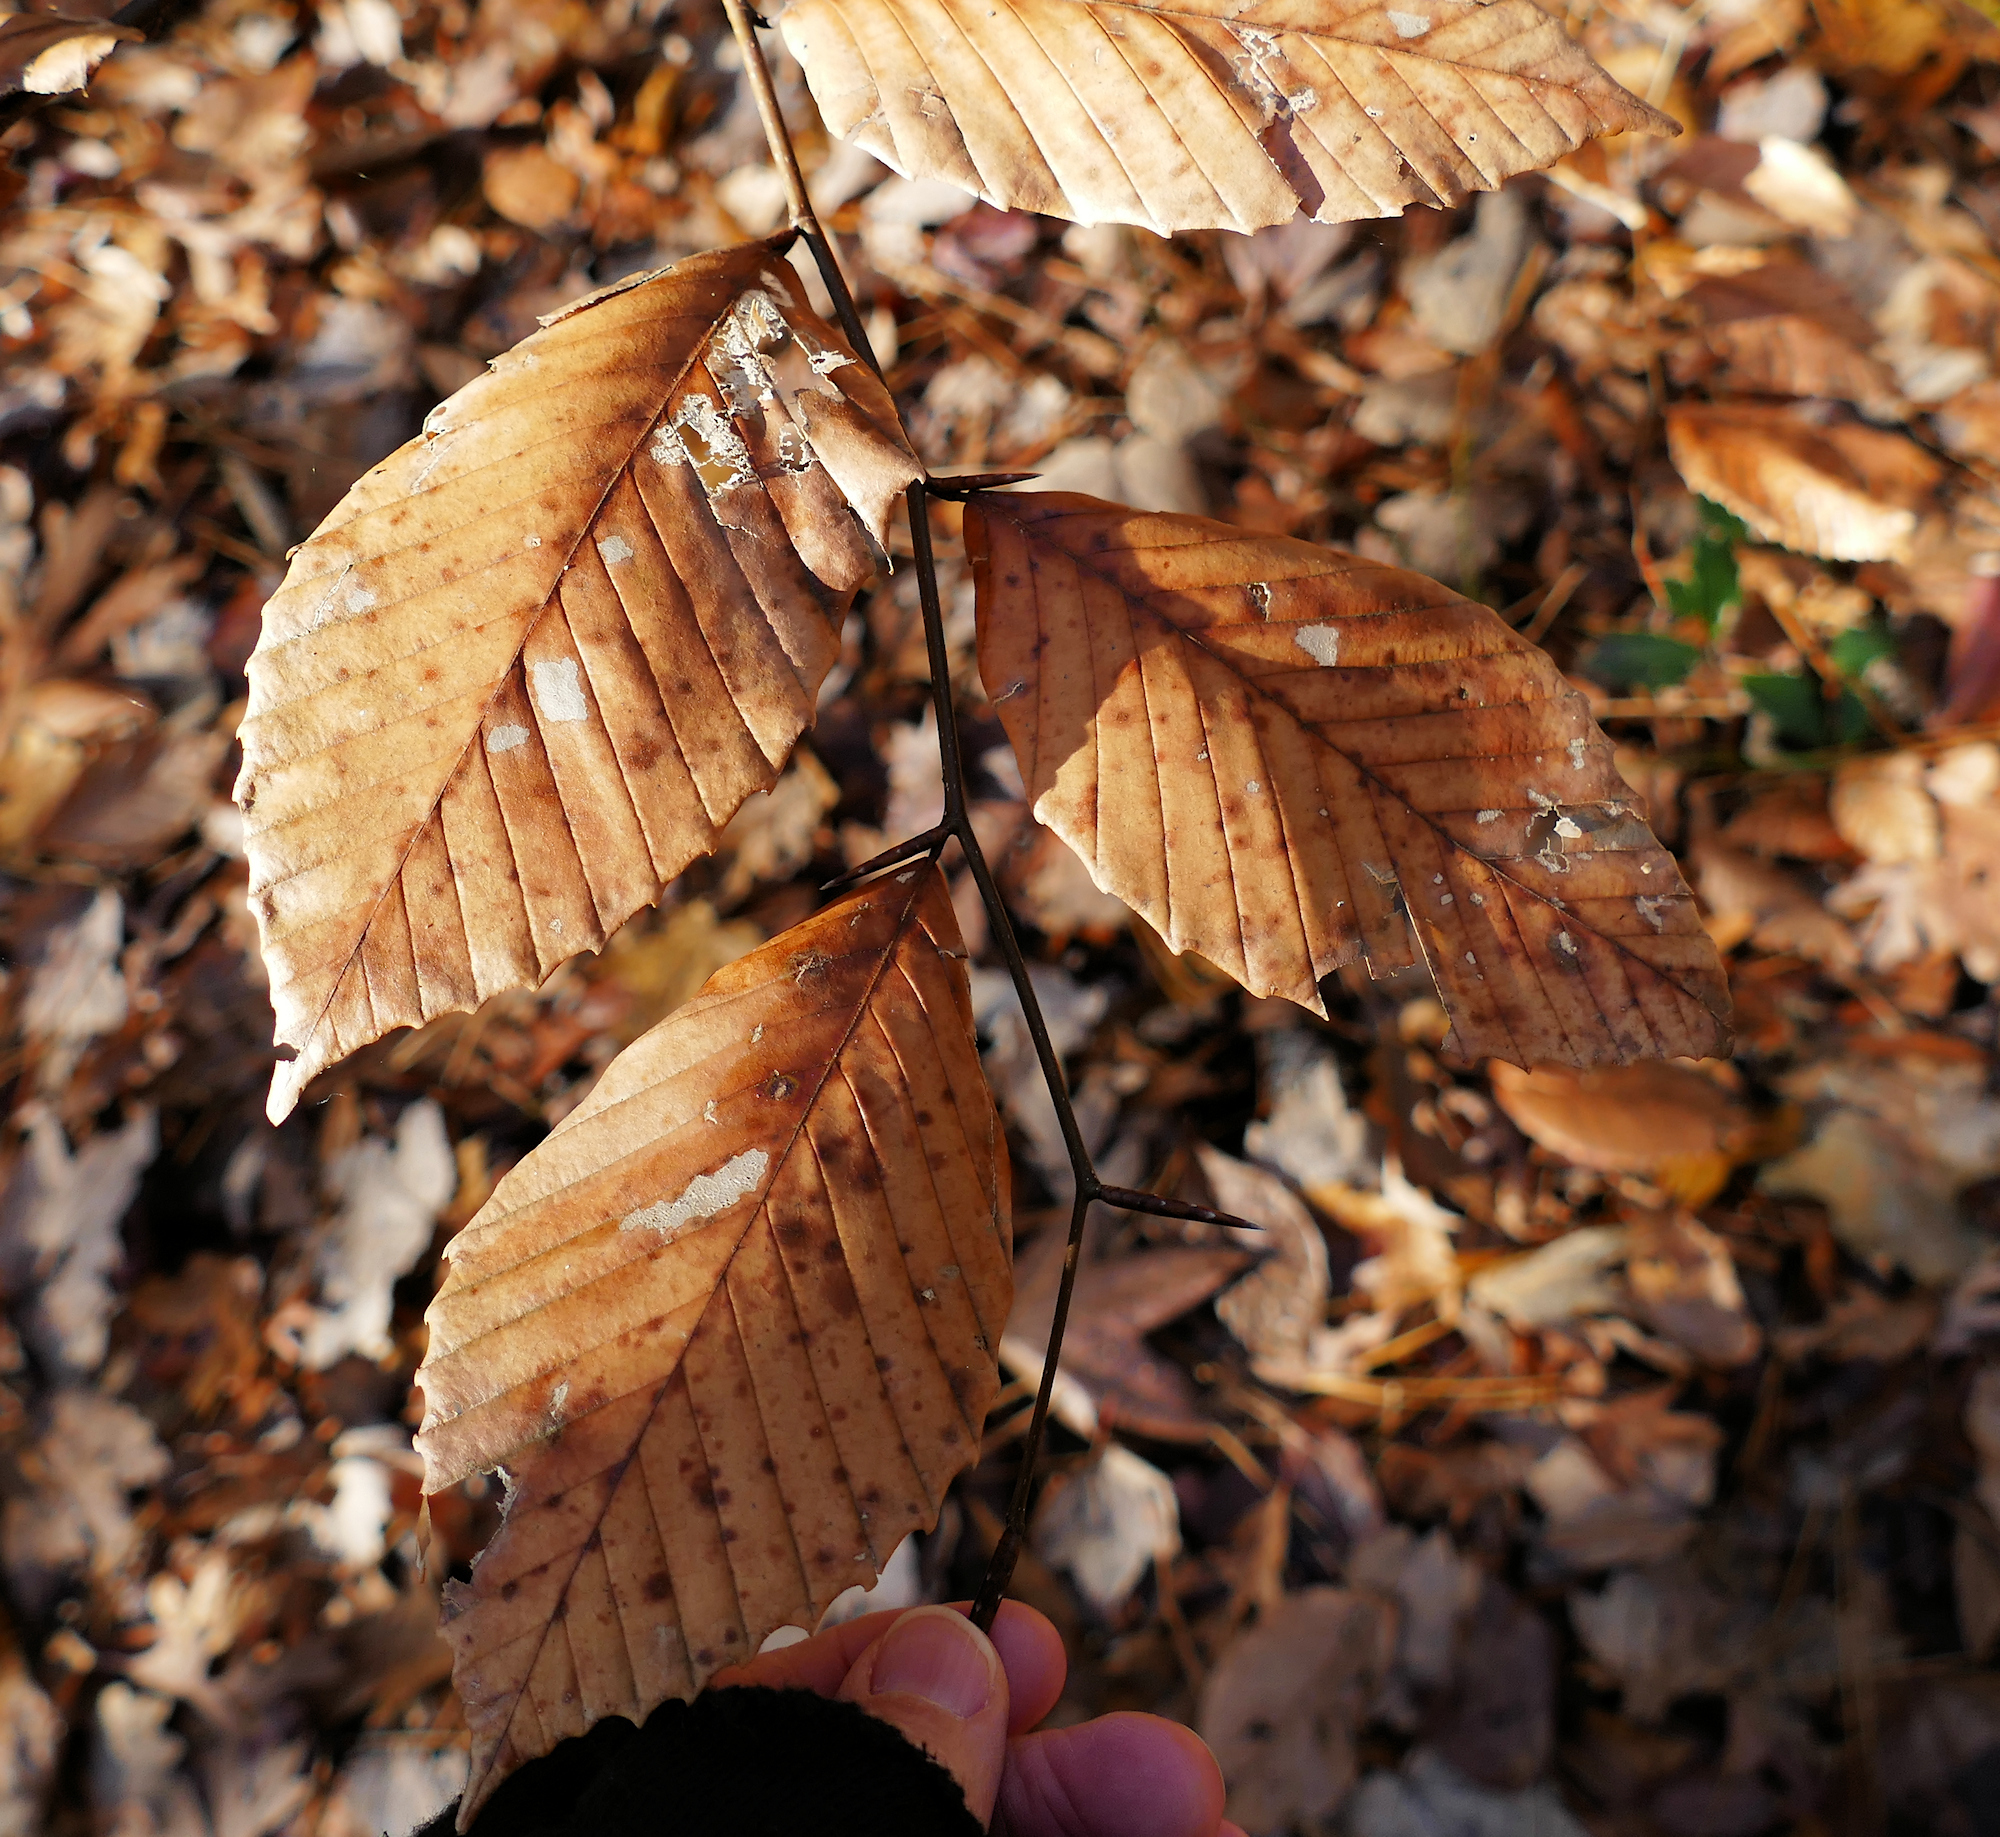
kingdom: Plantae
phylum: Tracheophyta
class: Magnoliopsida
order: Fagales
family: Fagaceae
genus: Fagus
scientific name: Fagus grandifolia
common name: American beech
